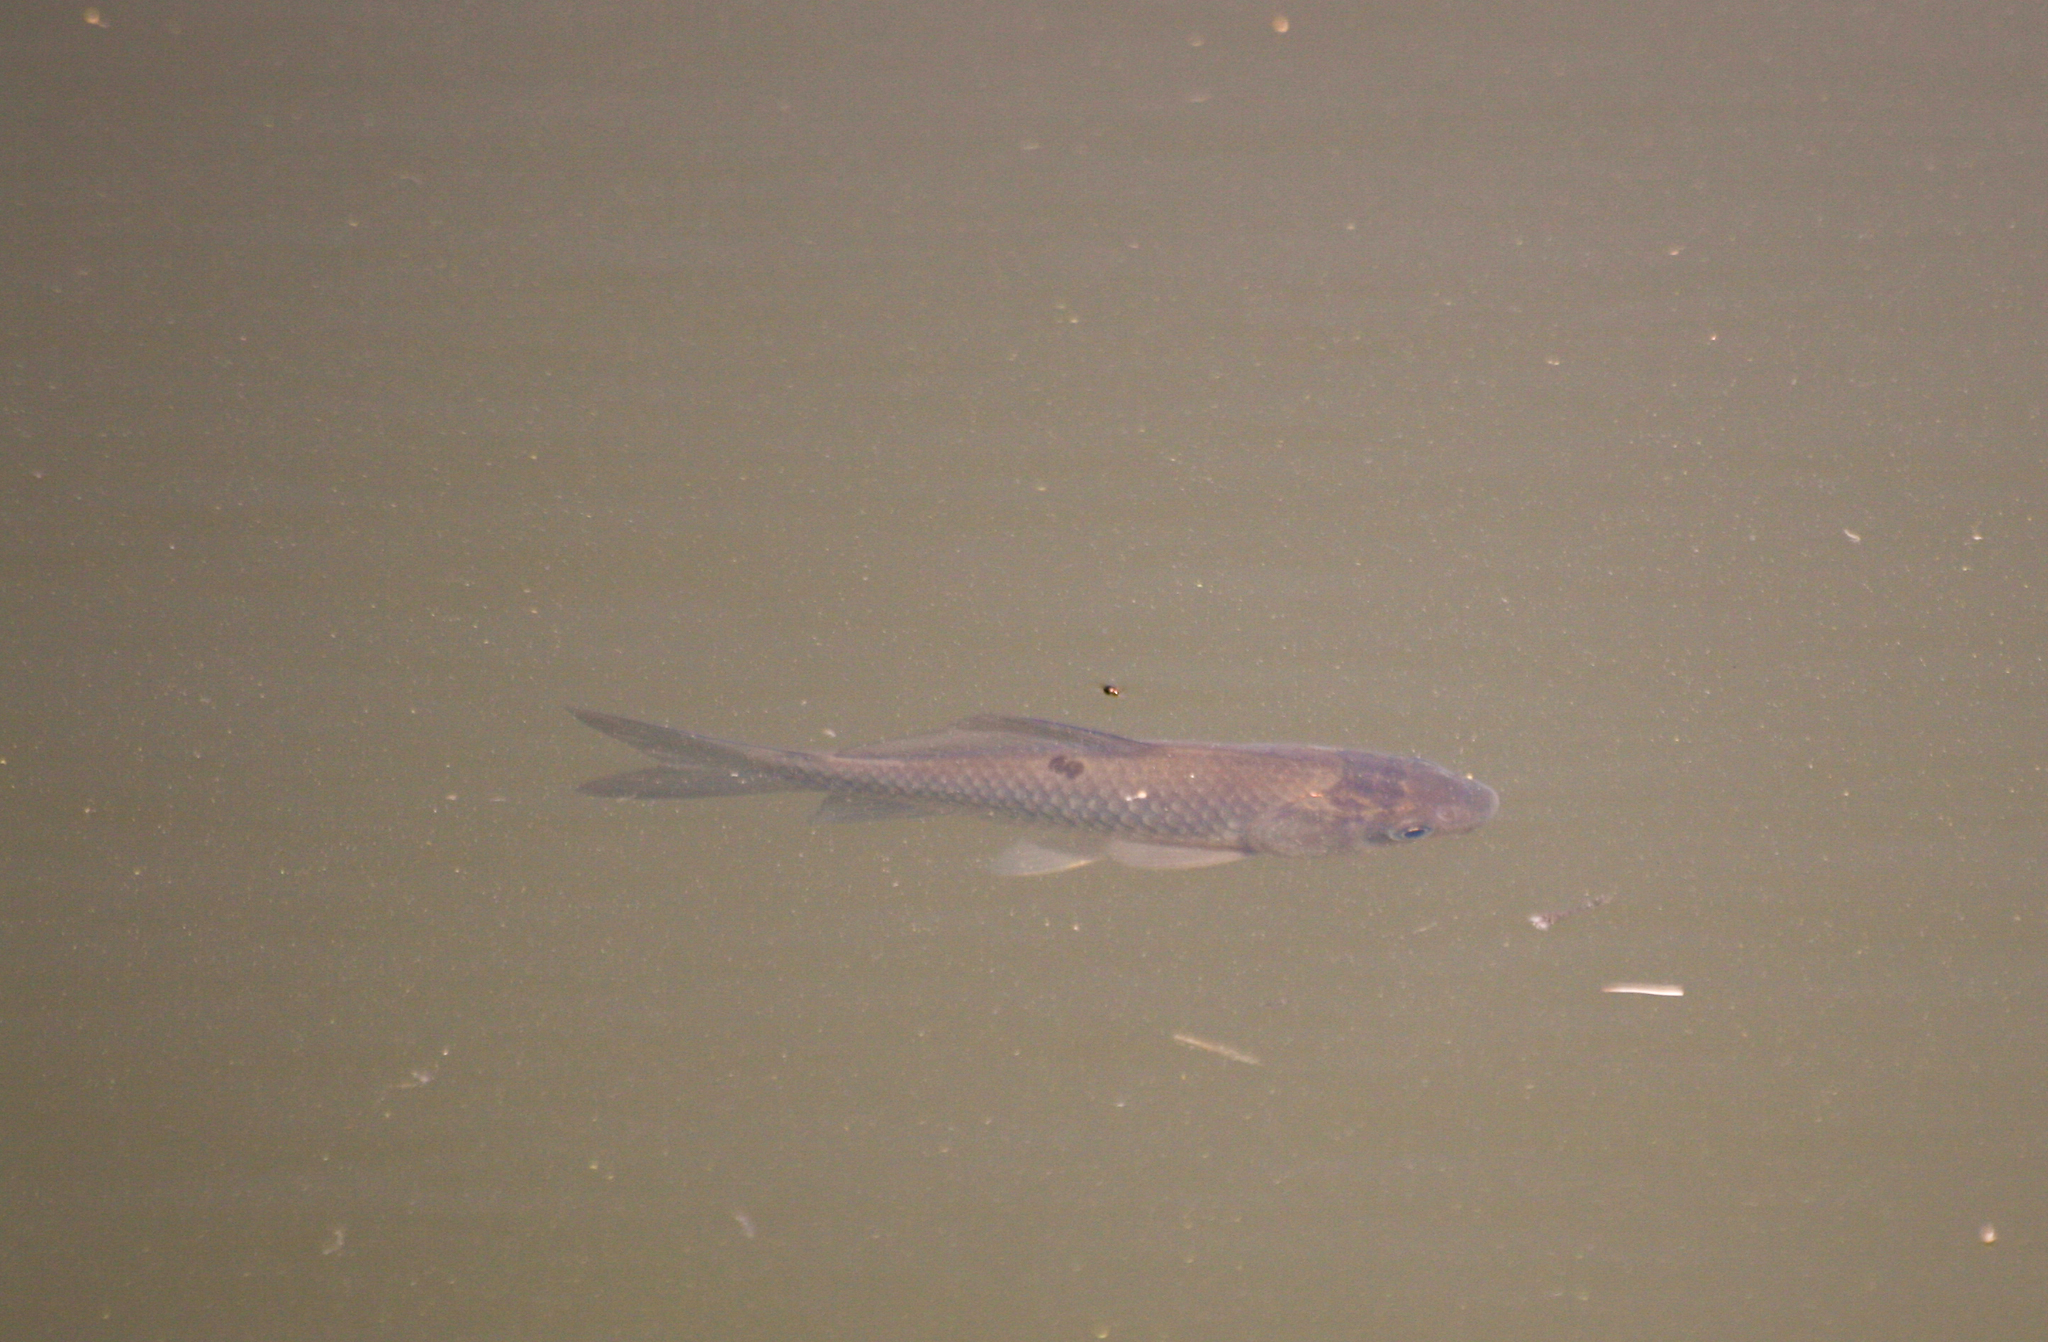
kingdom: Animalia
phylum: Chordata
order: Cypriniformes
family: Cyprinidae
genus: Carassius
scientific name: Carassius auratus
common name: Goldfish
